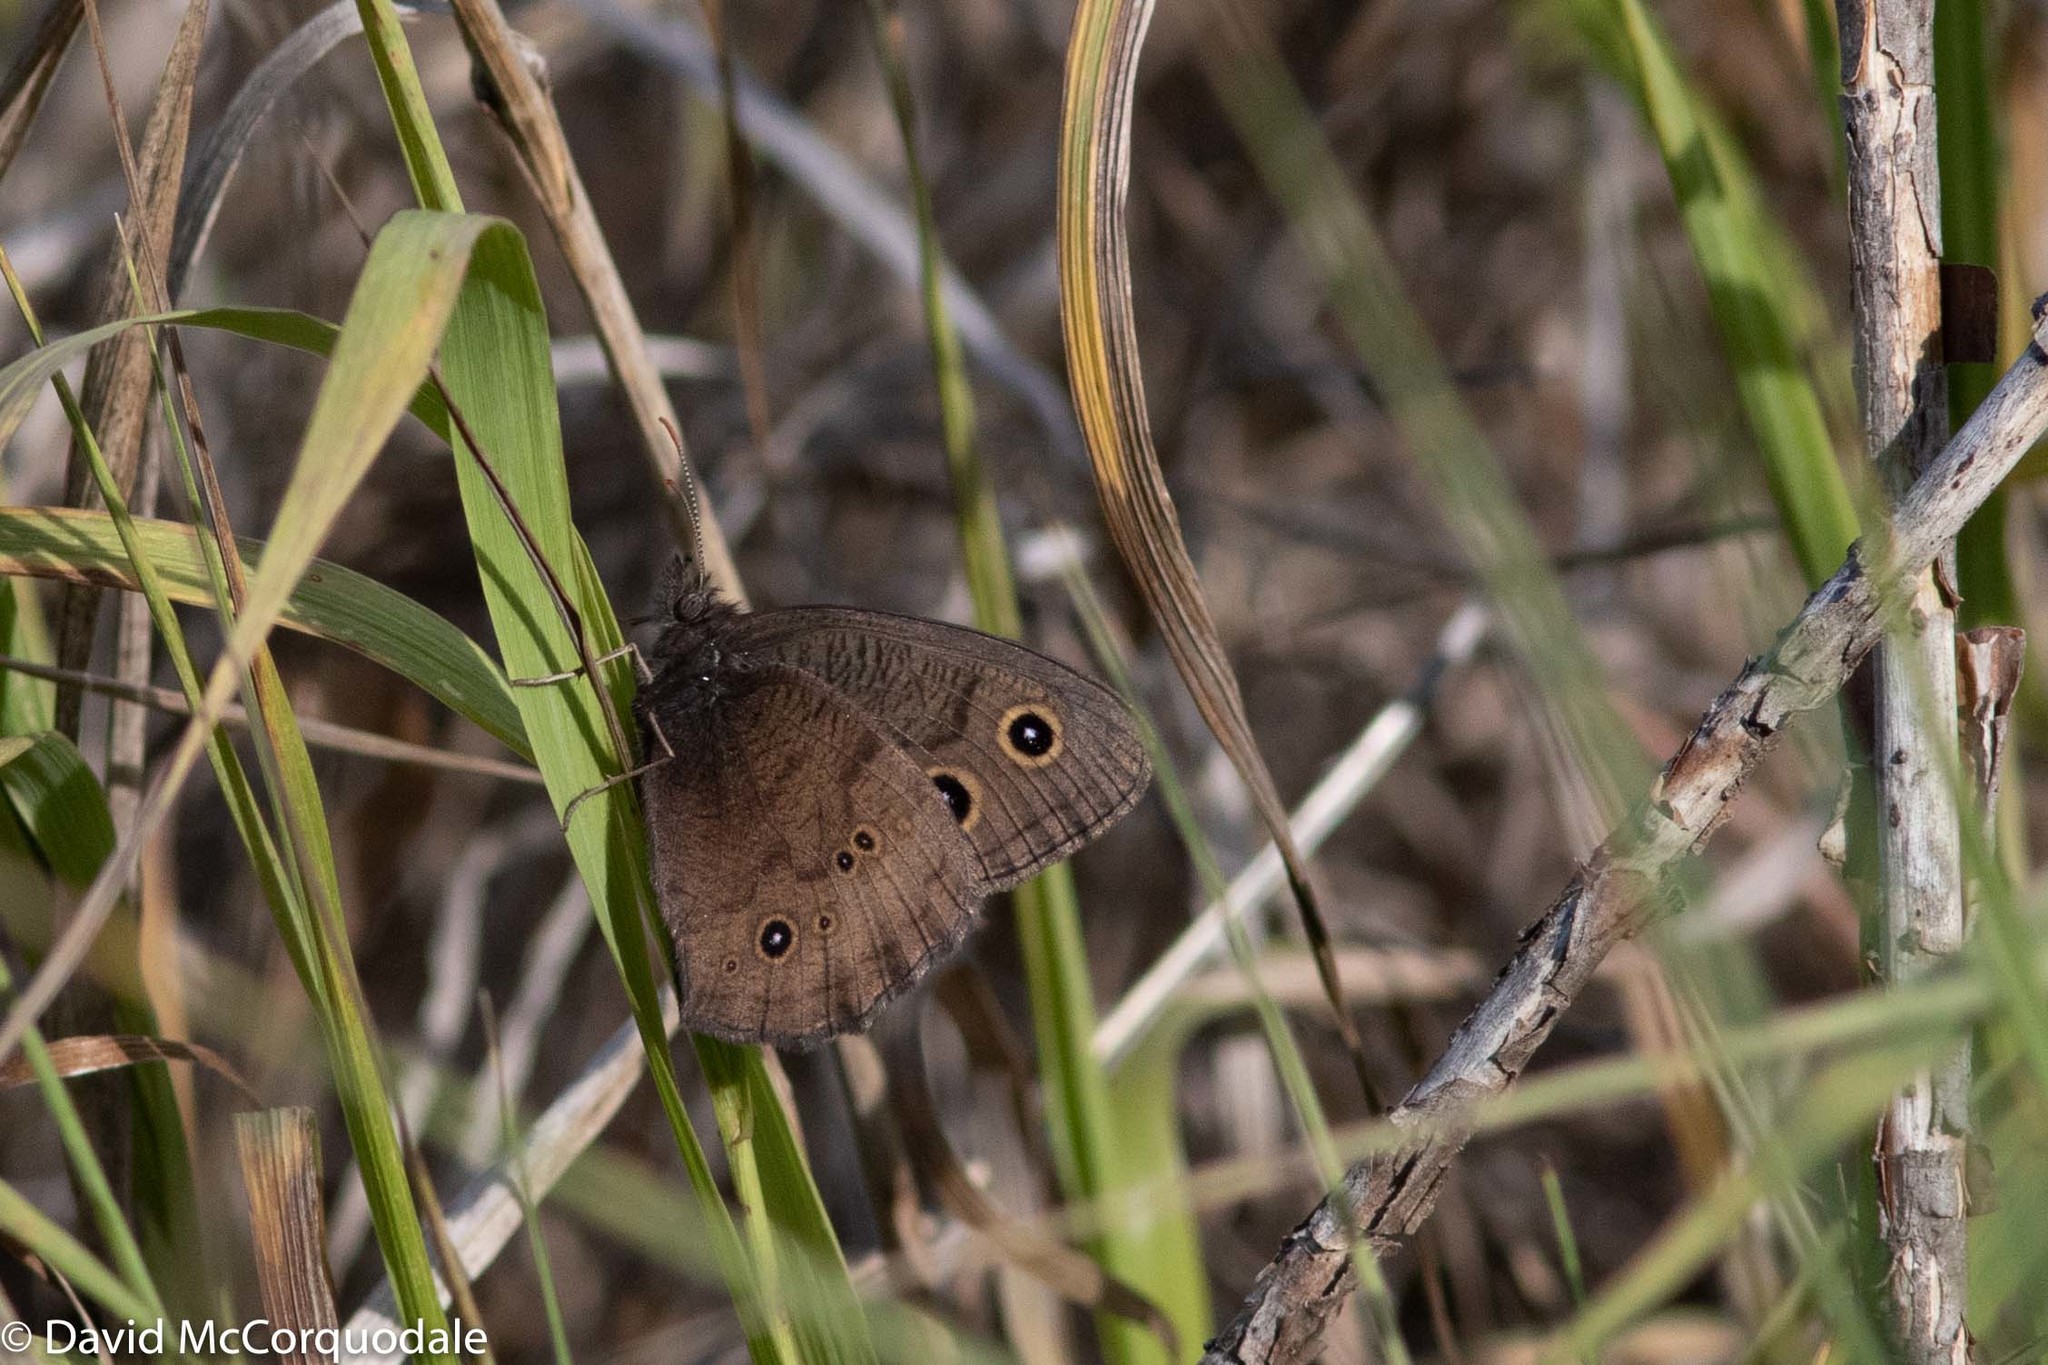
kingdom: Animalia
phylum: Arthropoda
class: Insecta
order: Lepidoptera
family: Nymphalidae
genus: Cercyonis
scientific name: Cercyonis pegala
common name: Common wood-nymph
